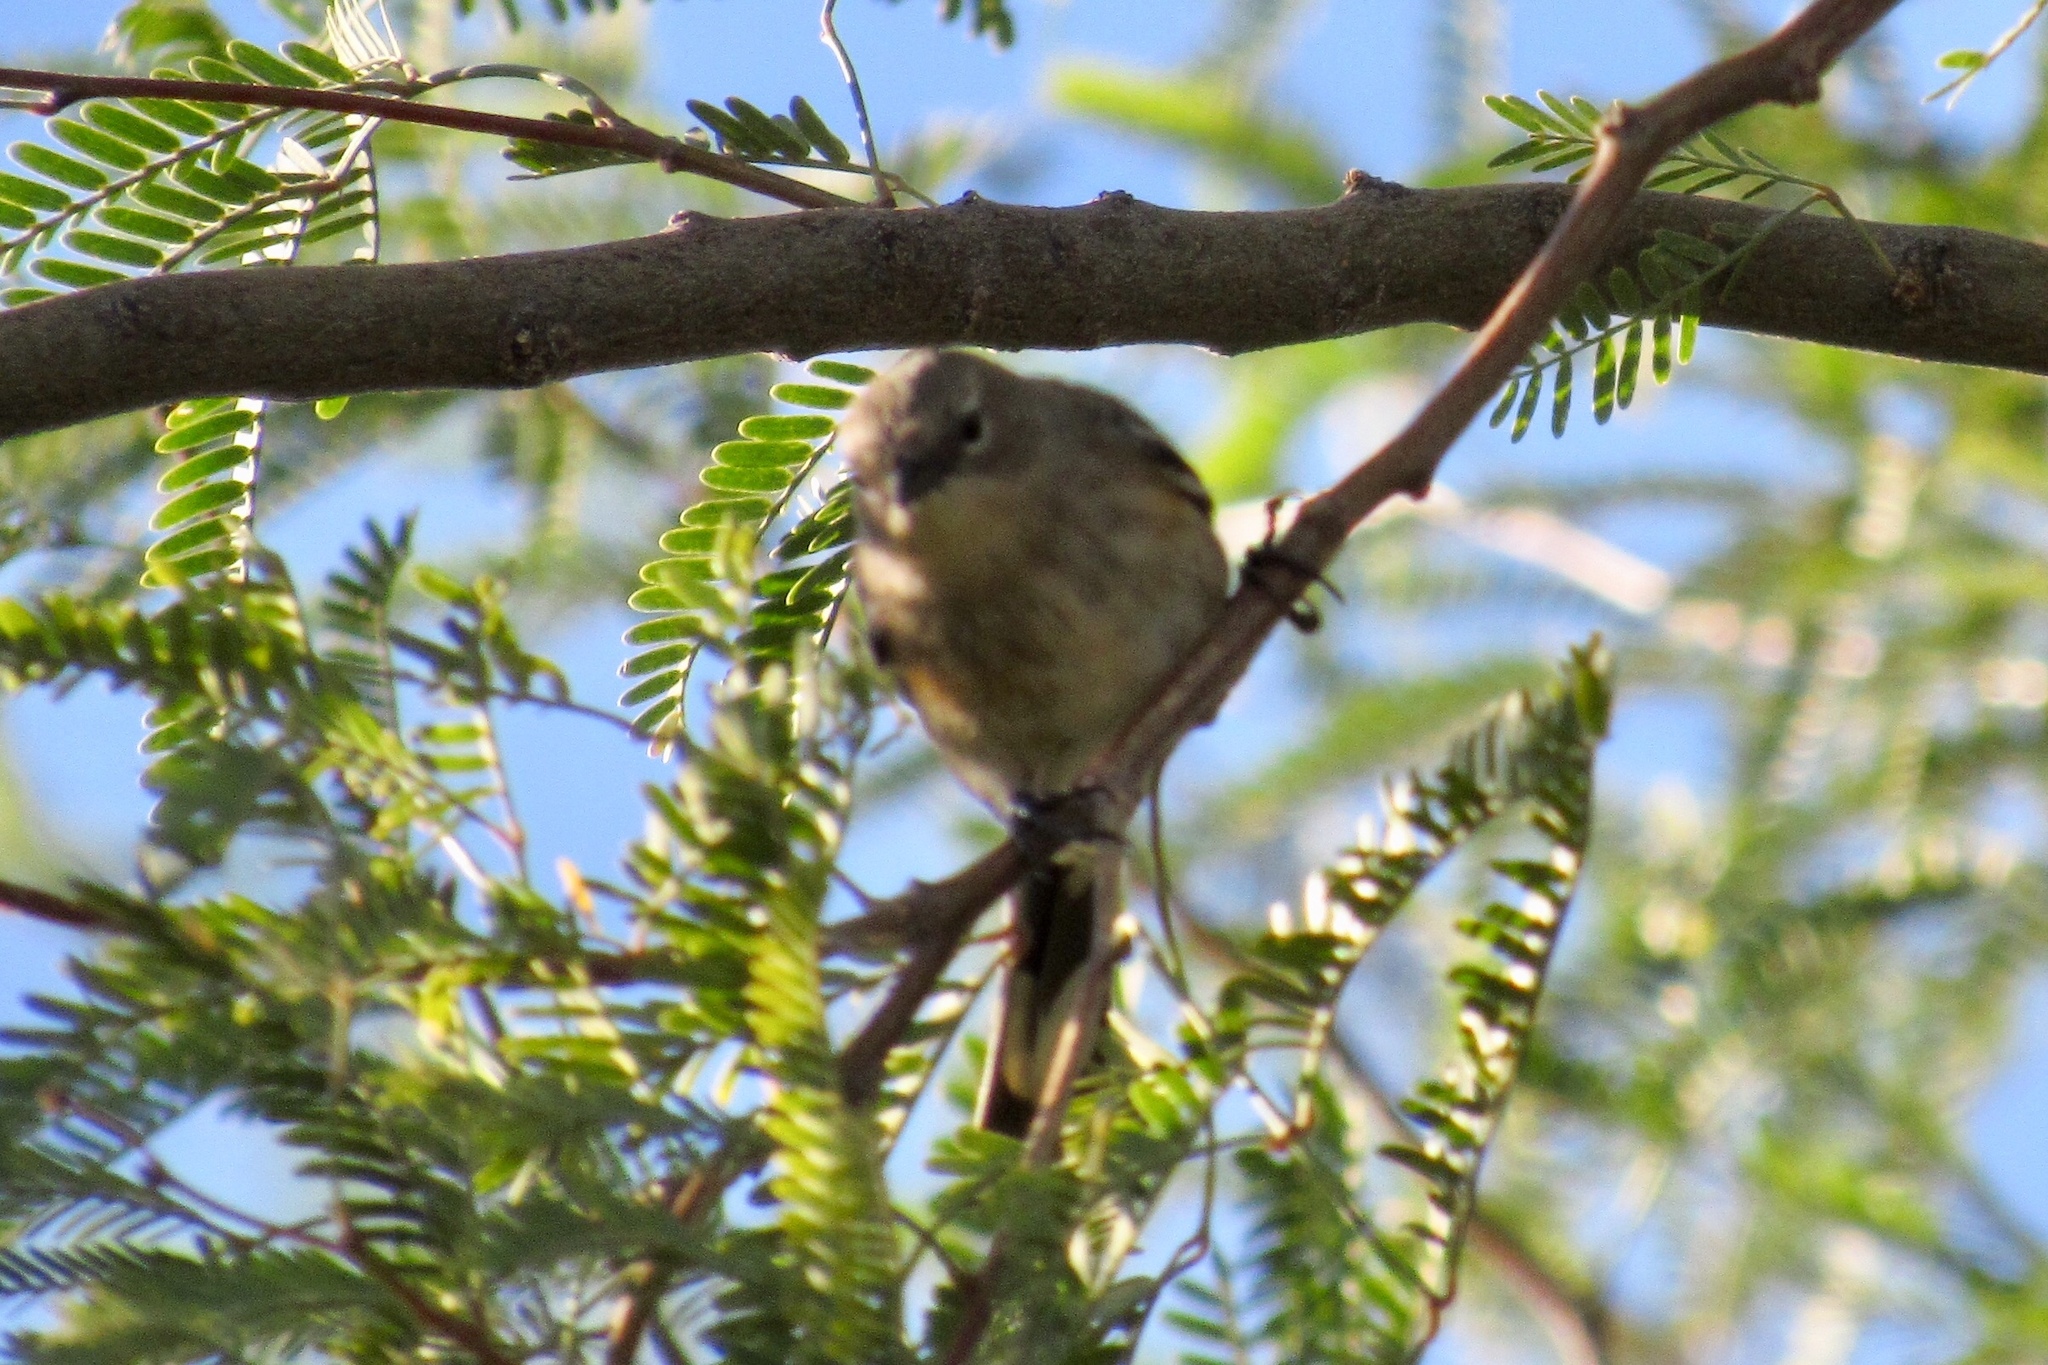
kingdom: Animalia
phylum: Chordata
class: Aves
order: Passeriformes
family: Parulidae
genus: Setophaga
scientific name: Setophaga coronata
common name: Myrtle warbler
